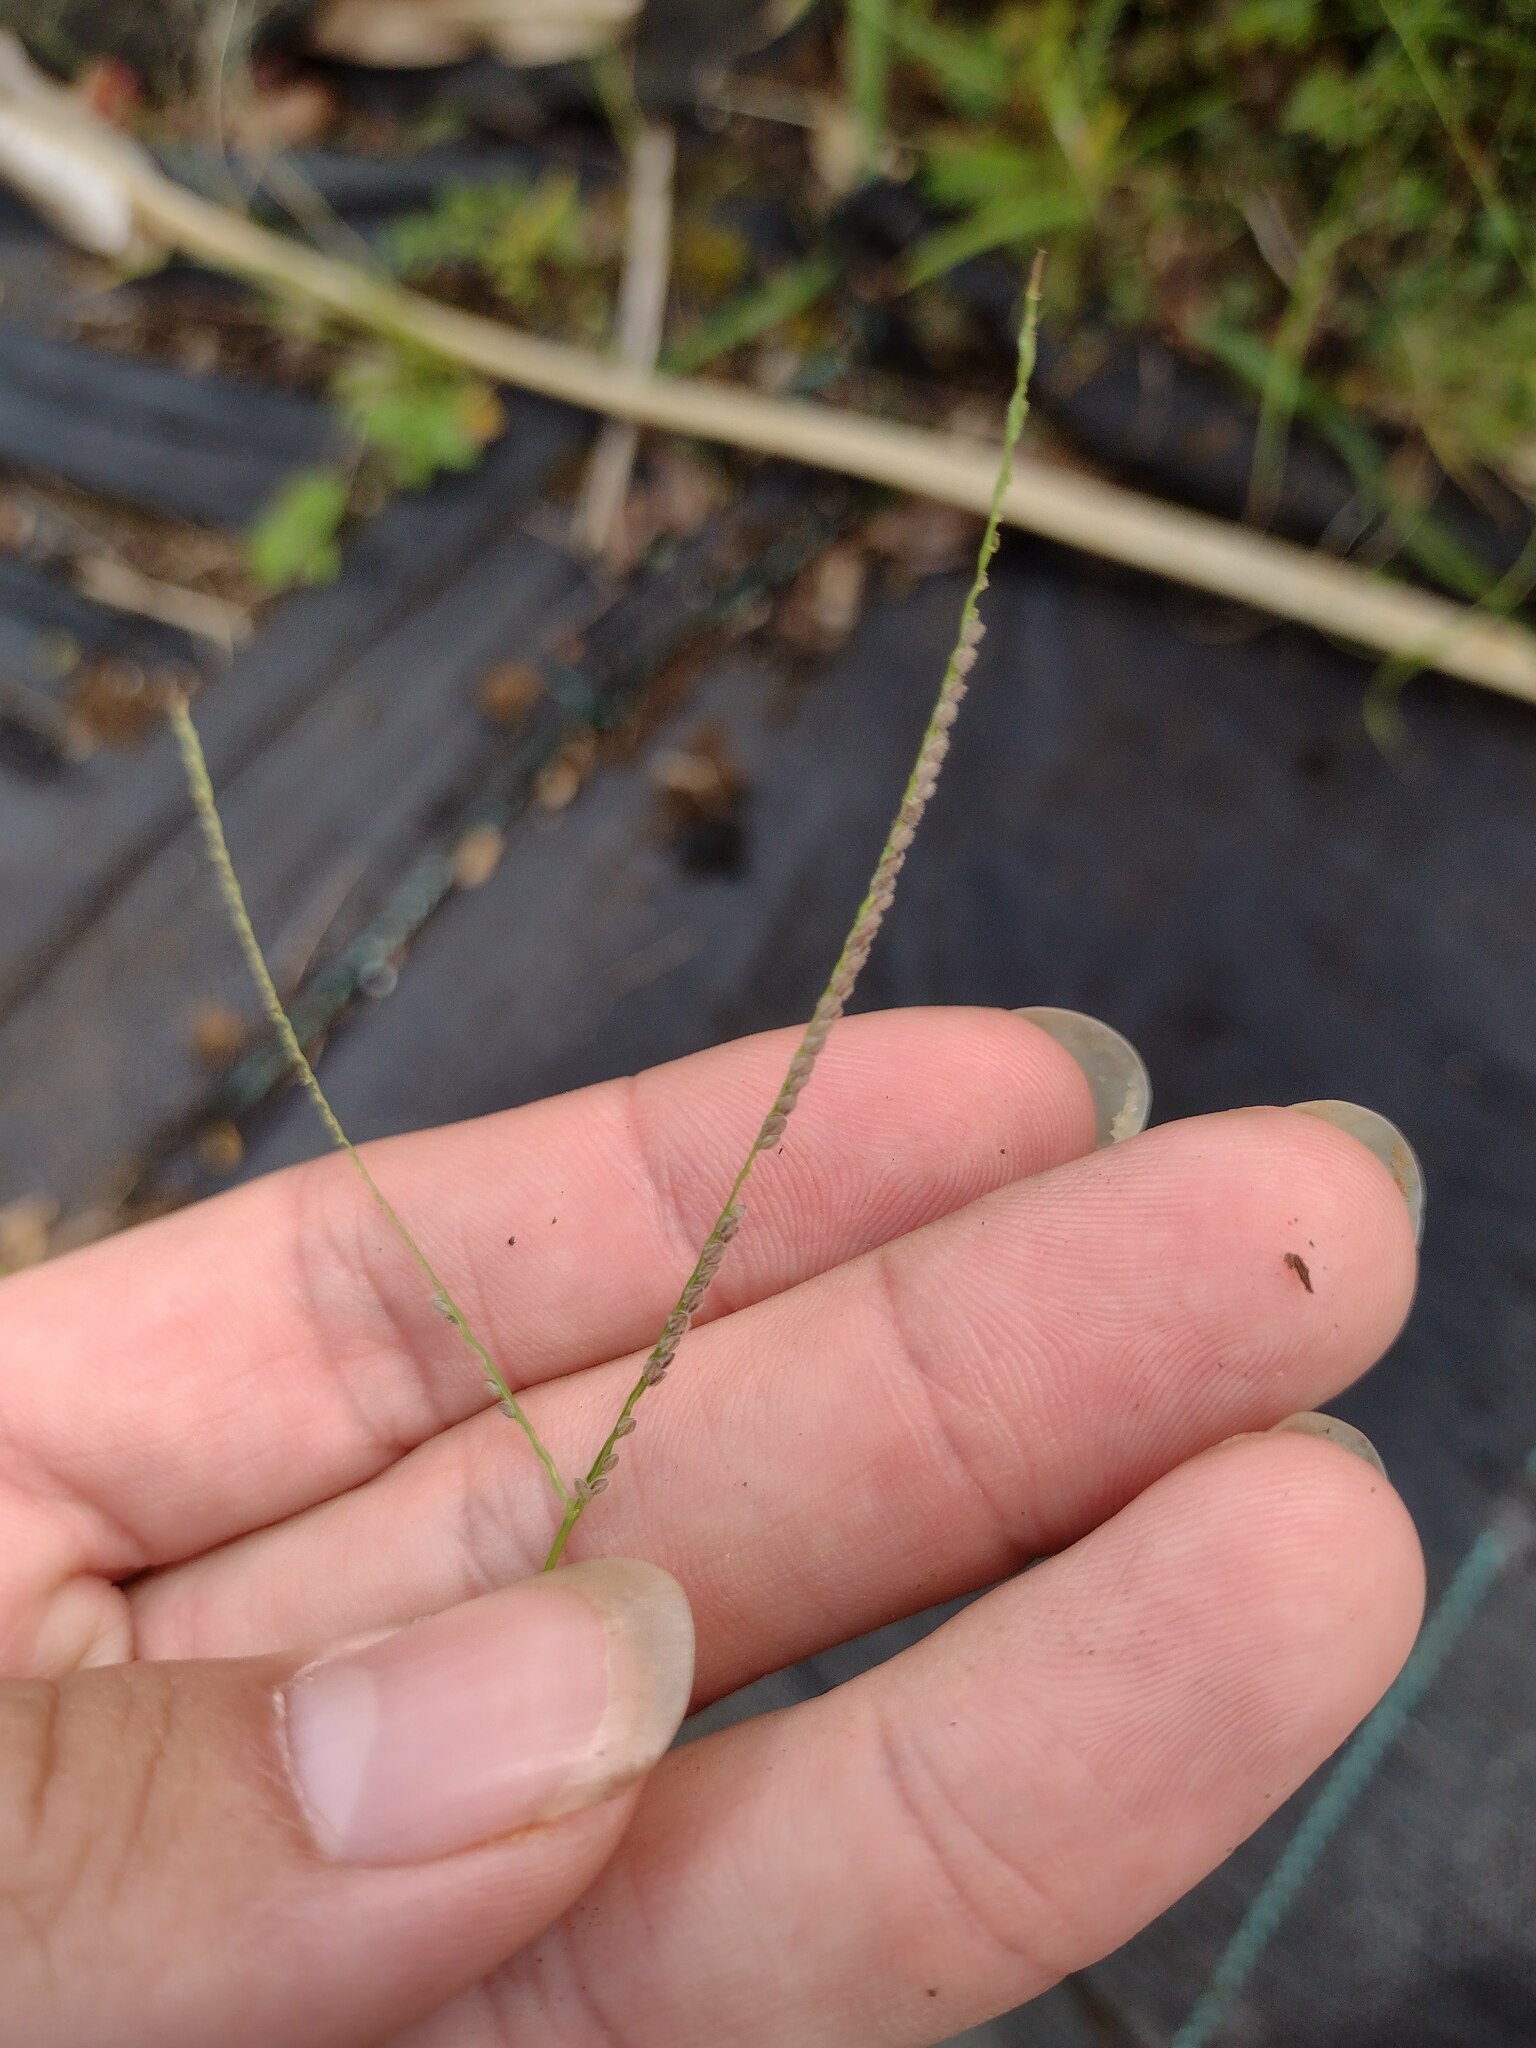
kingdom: Plantae
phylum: Tracheophyta
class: Liliopsida
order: Poales
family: Poaceae
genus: Digitaria
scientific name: Digitaria violascens
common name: Violet crabgrass
